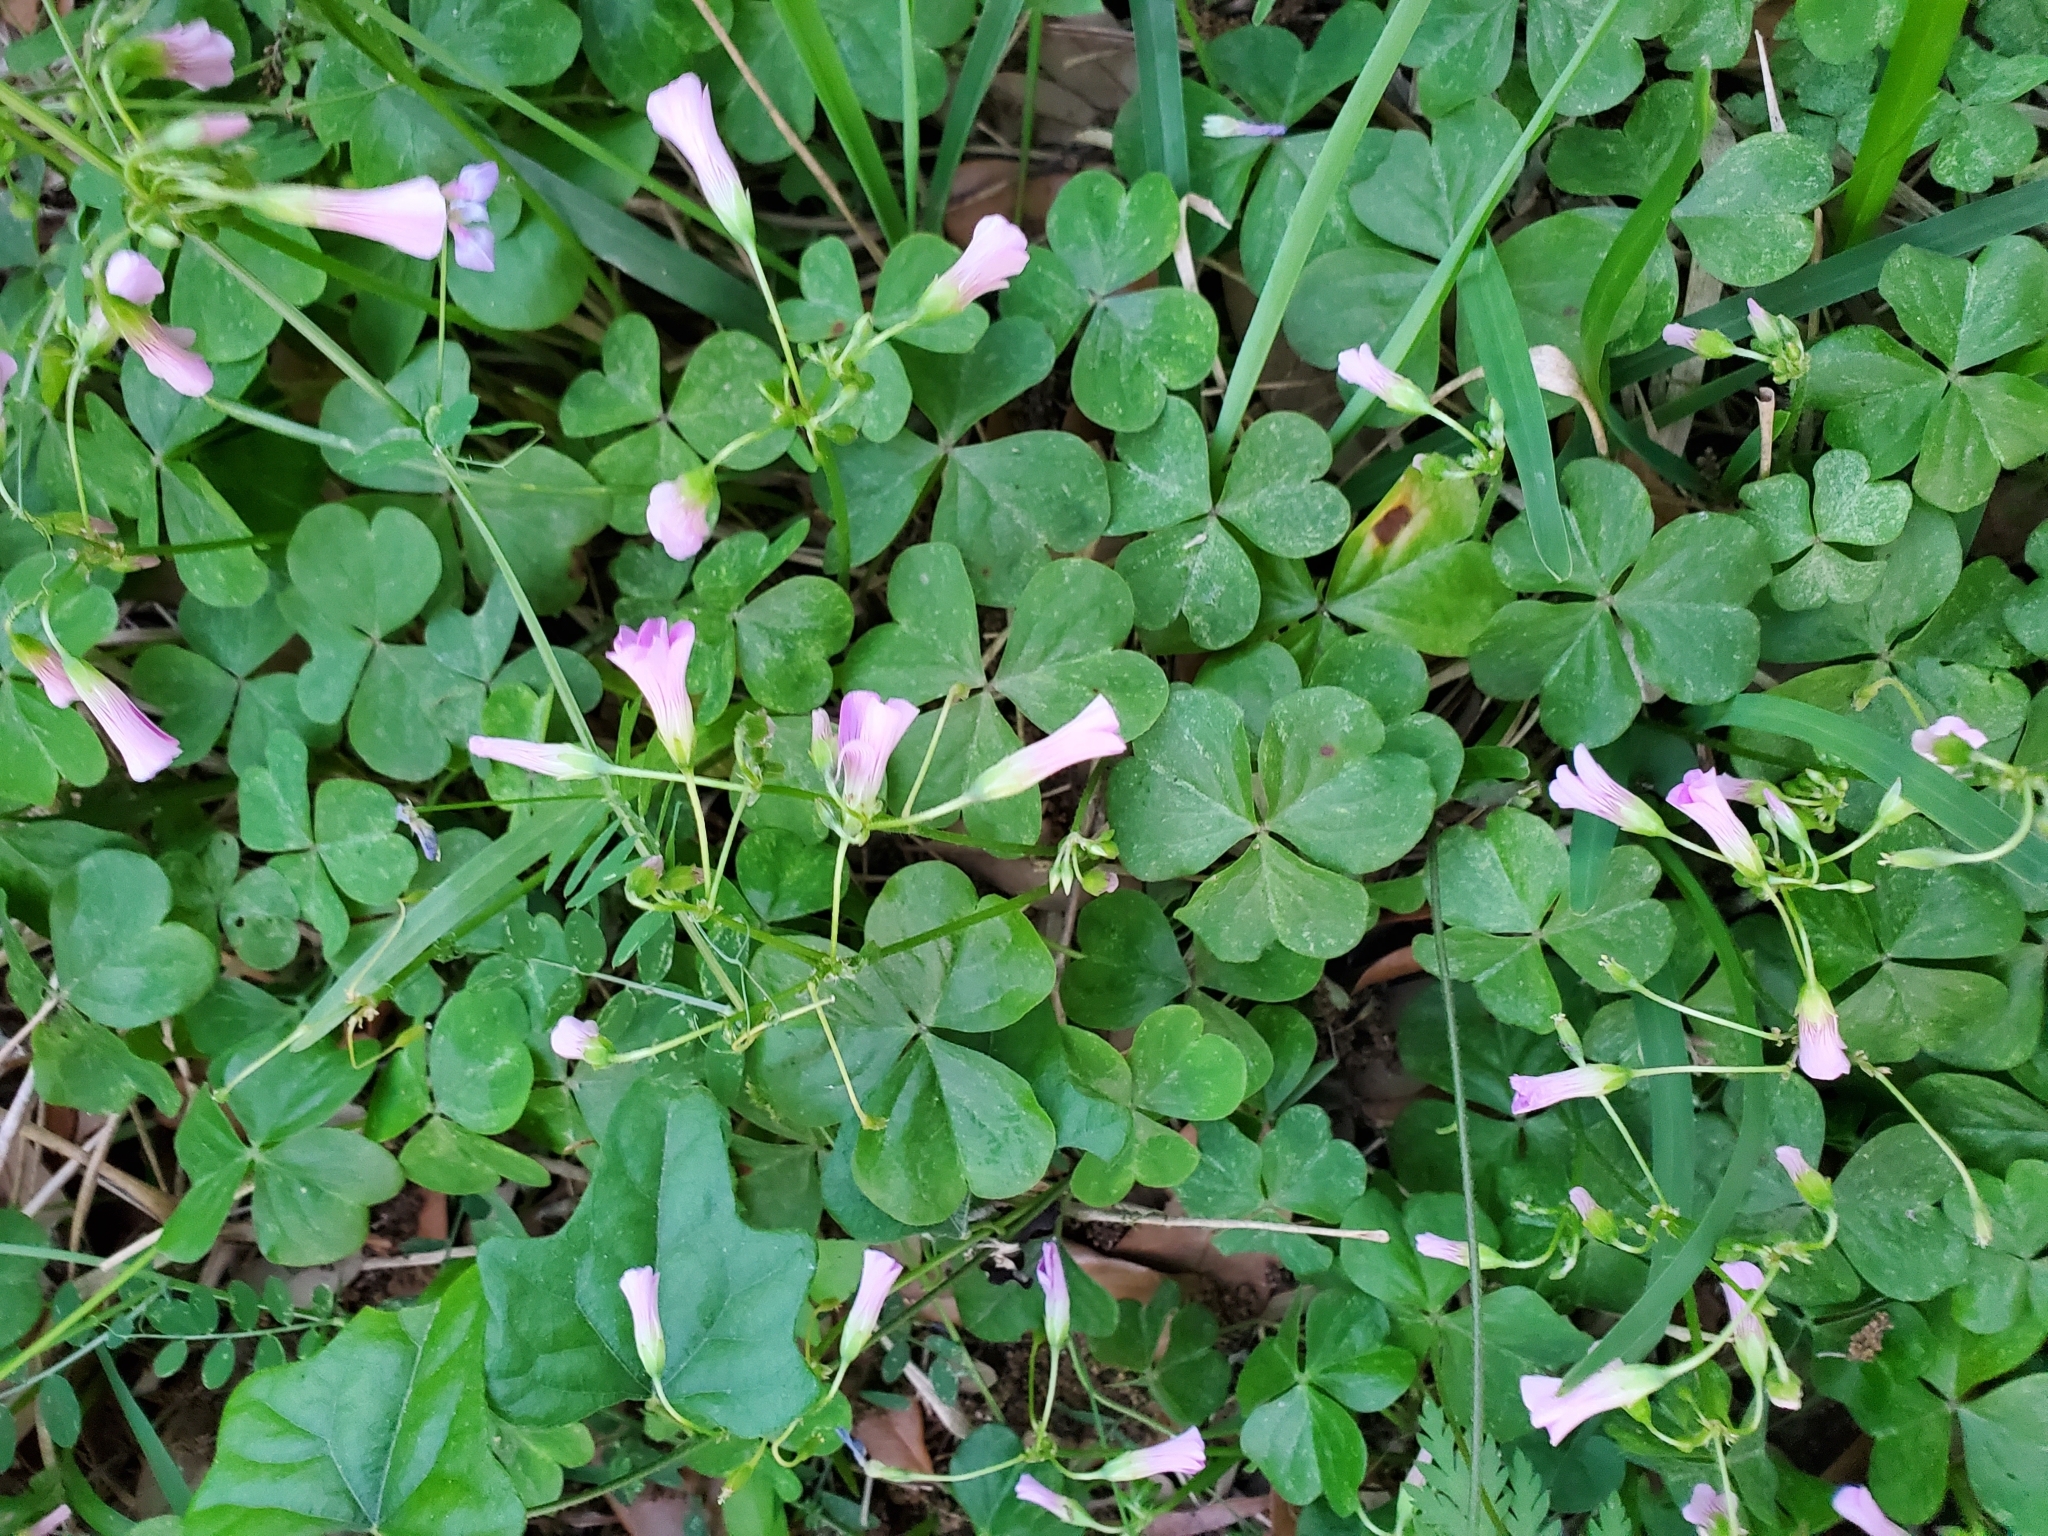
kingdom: Plantae
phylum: Tracheophyta
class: Magnoliopsida
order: Oxalidales
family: Oxalidaceae
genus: Oxalis
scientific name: Oxalis debilis
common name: Large-flowered pink-sorrel
